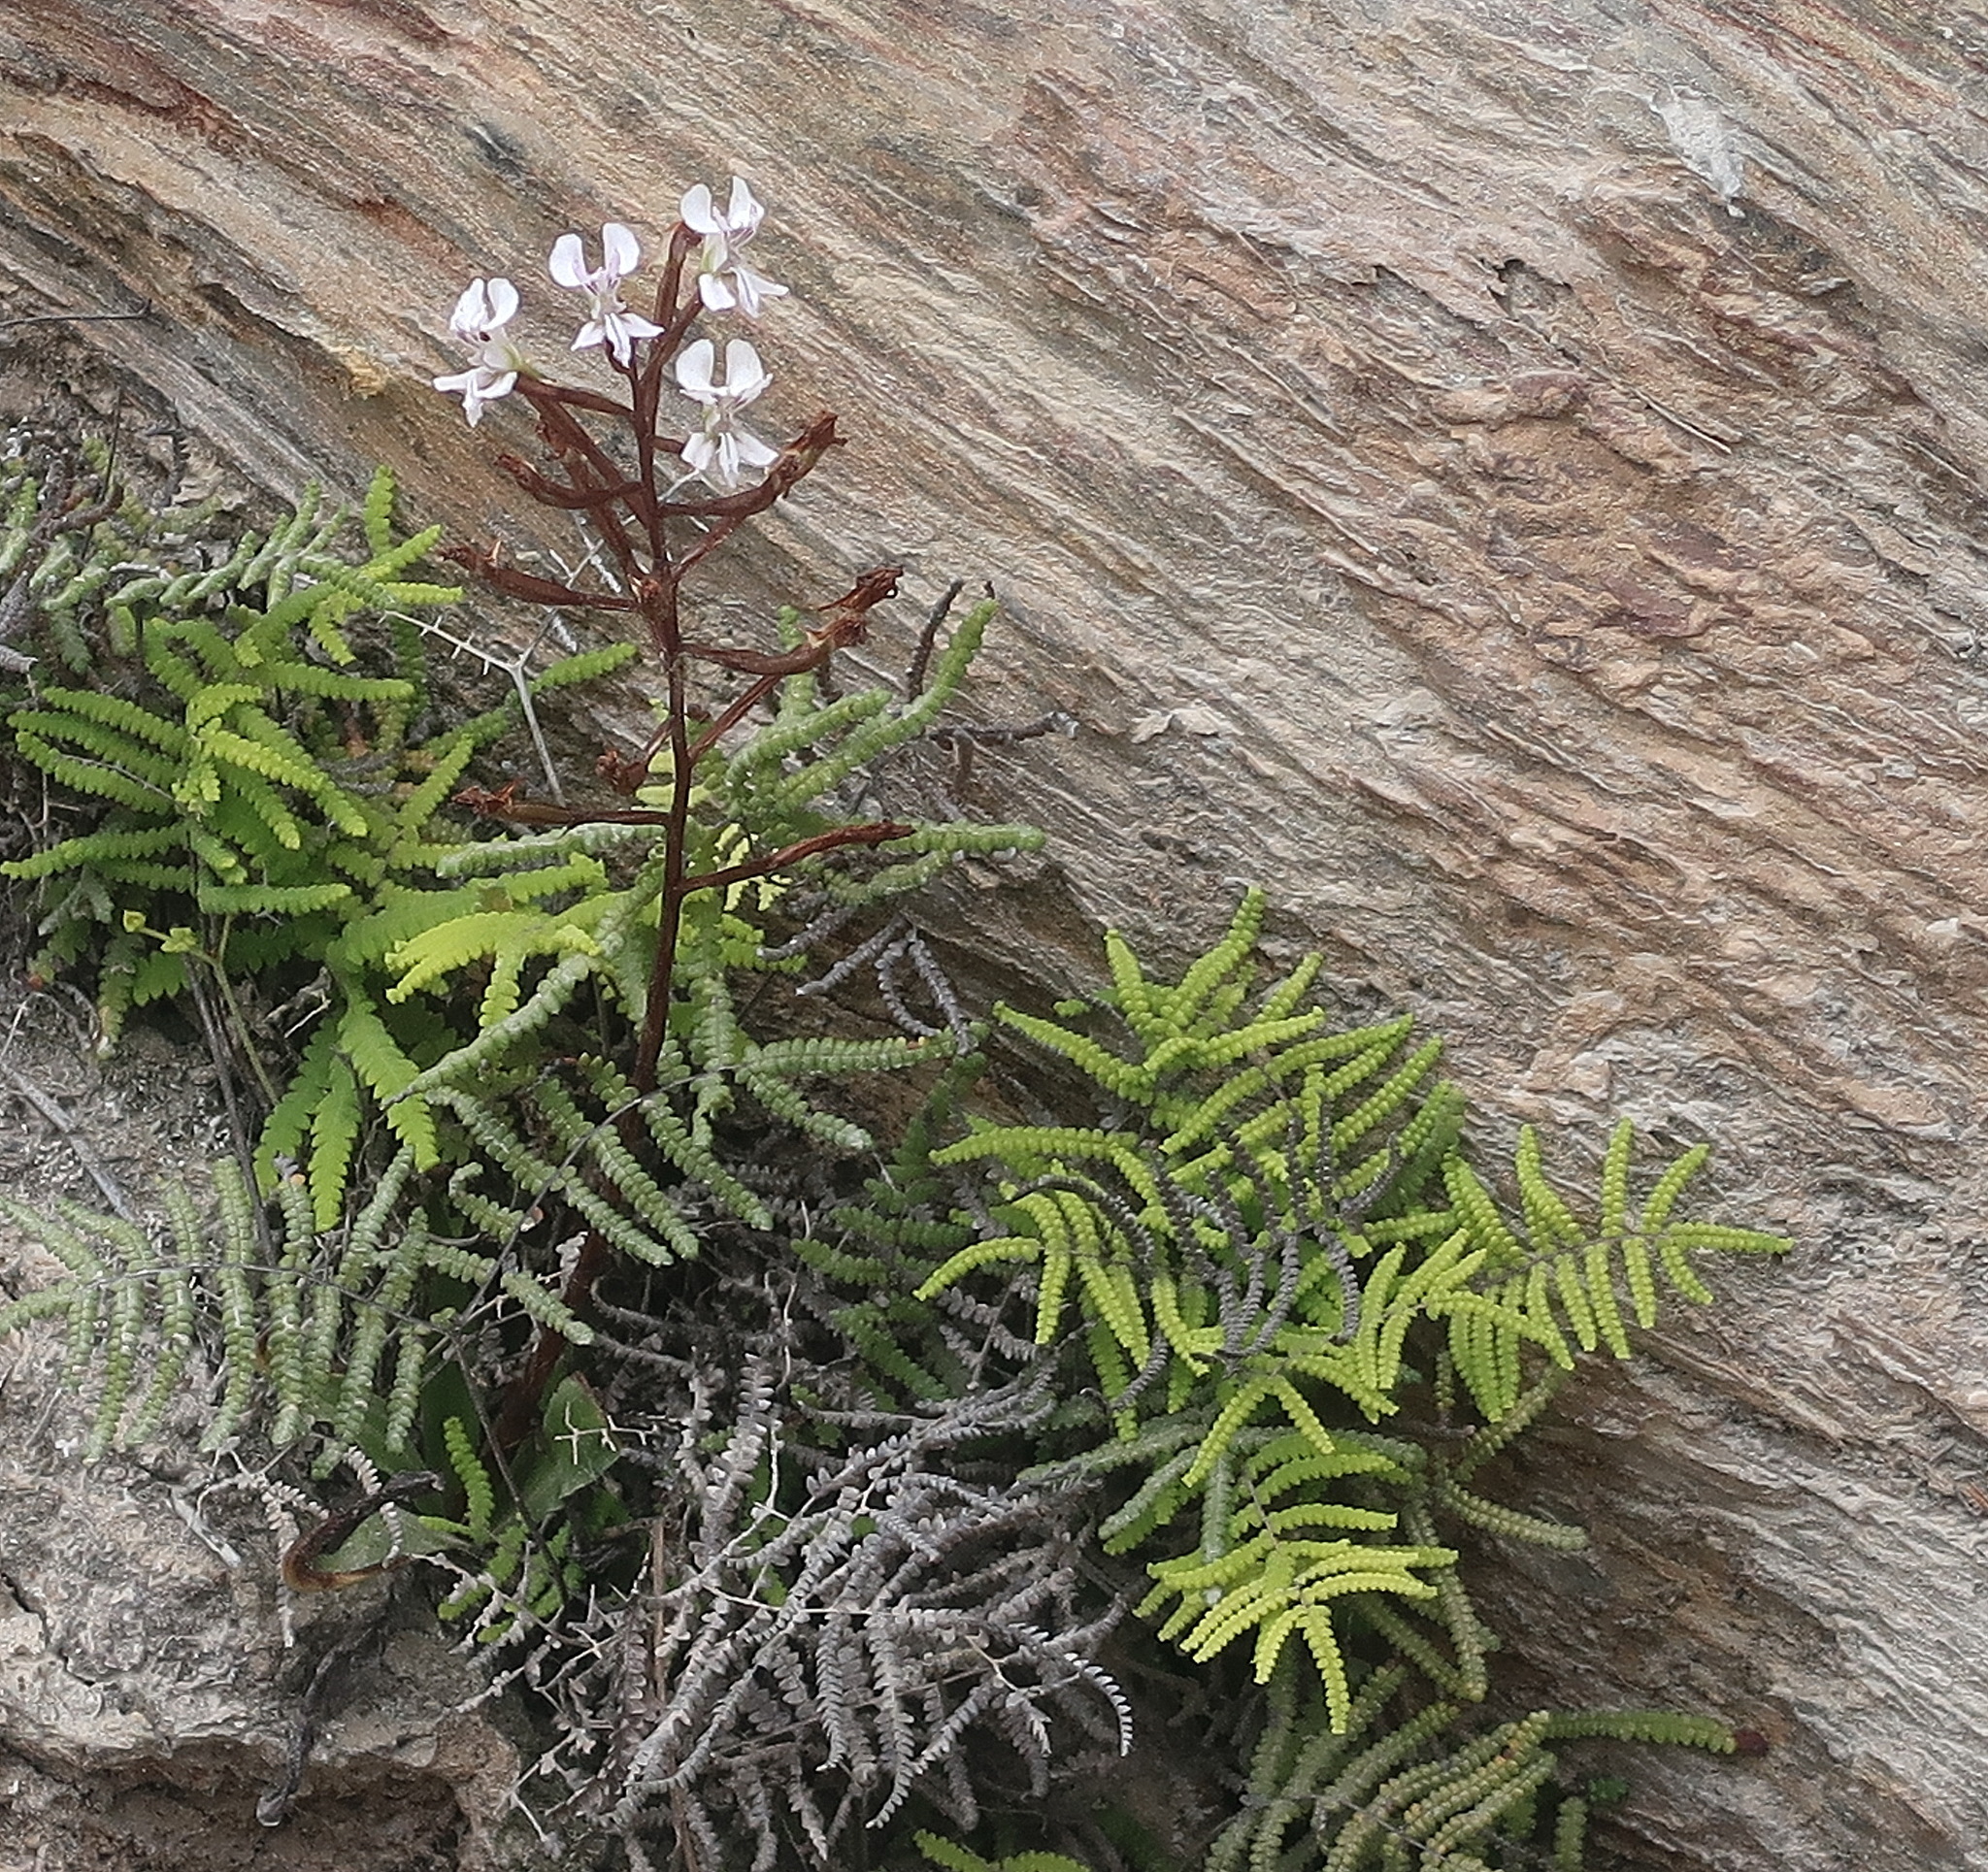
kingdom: Plantae
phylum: Tracheophyta
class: Liliopsida
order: Asparagales
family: Orchidaceae
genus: Disa
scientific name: Disa sagittalis
